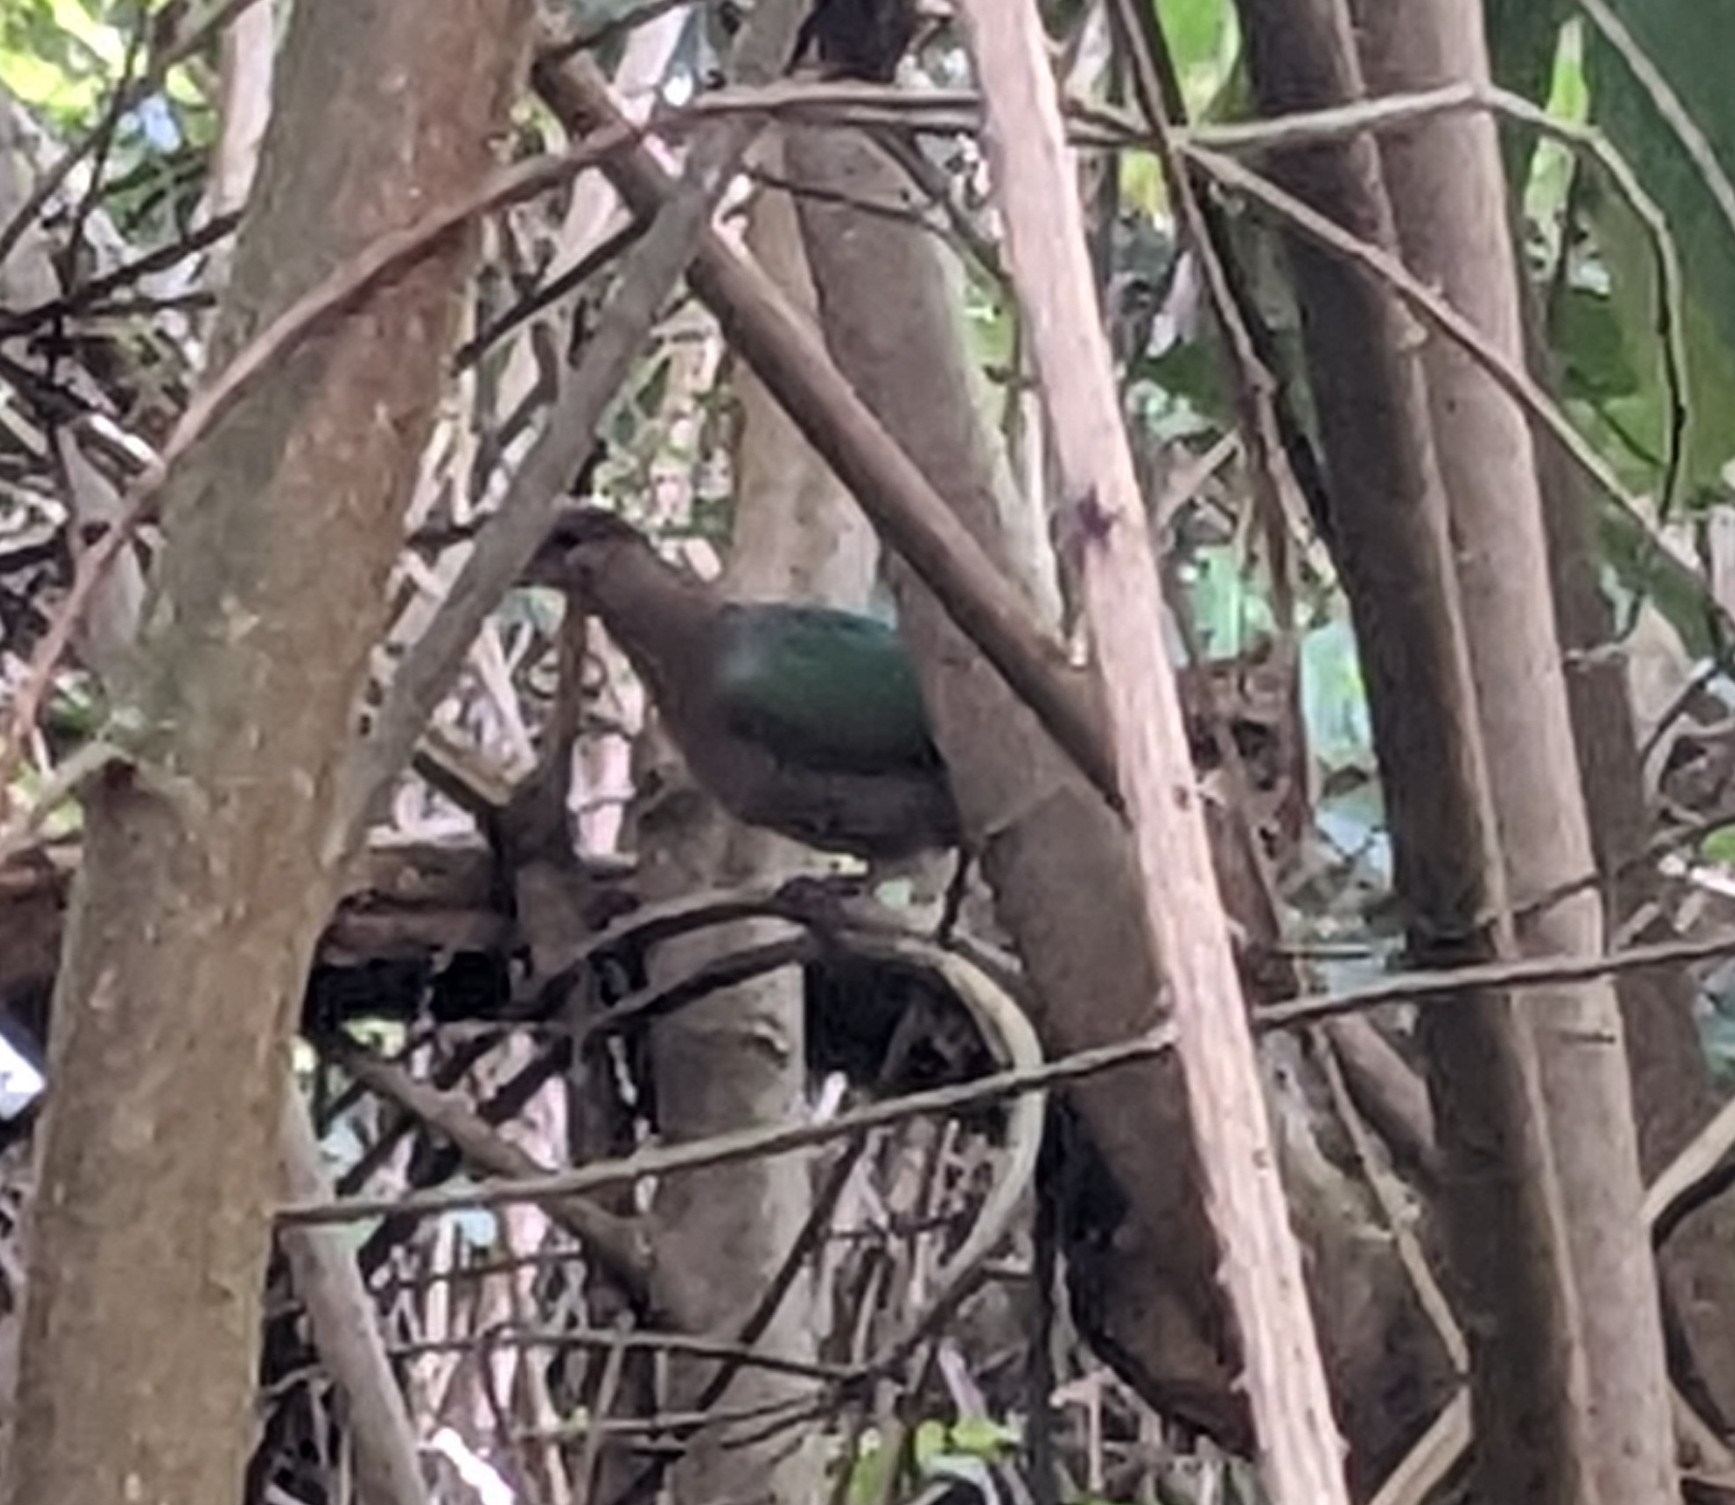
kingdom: Animalia
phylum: Chordata
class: Aves
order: Columbiformes
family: Columbidae
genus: Chalcophaps
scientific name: Chalcophaps longirostris
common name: Pacific emerald dove
